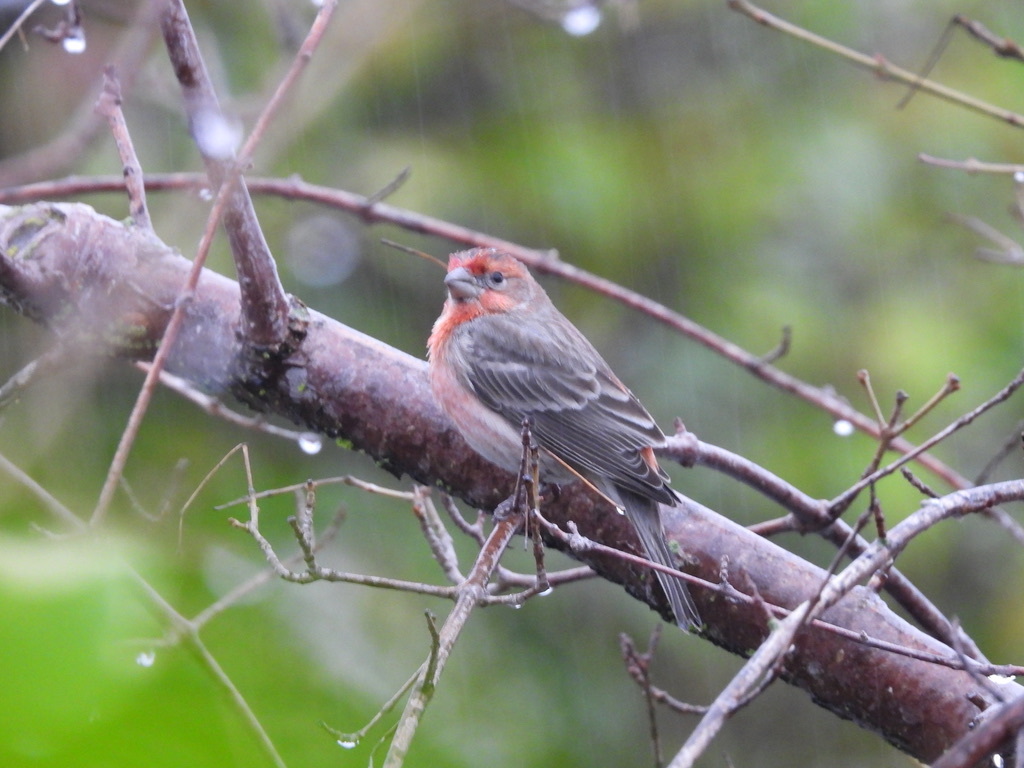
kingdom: Animalia
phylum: Chordata
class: Aves
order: Passeriformes
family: Fringillidae
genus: Haemorhous
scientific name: Haemorhous mexicanus
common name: House finch
